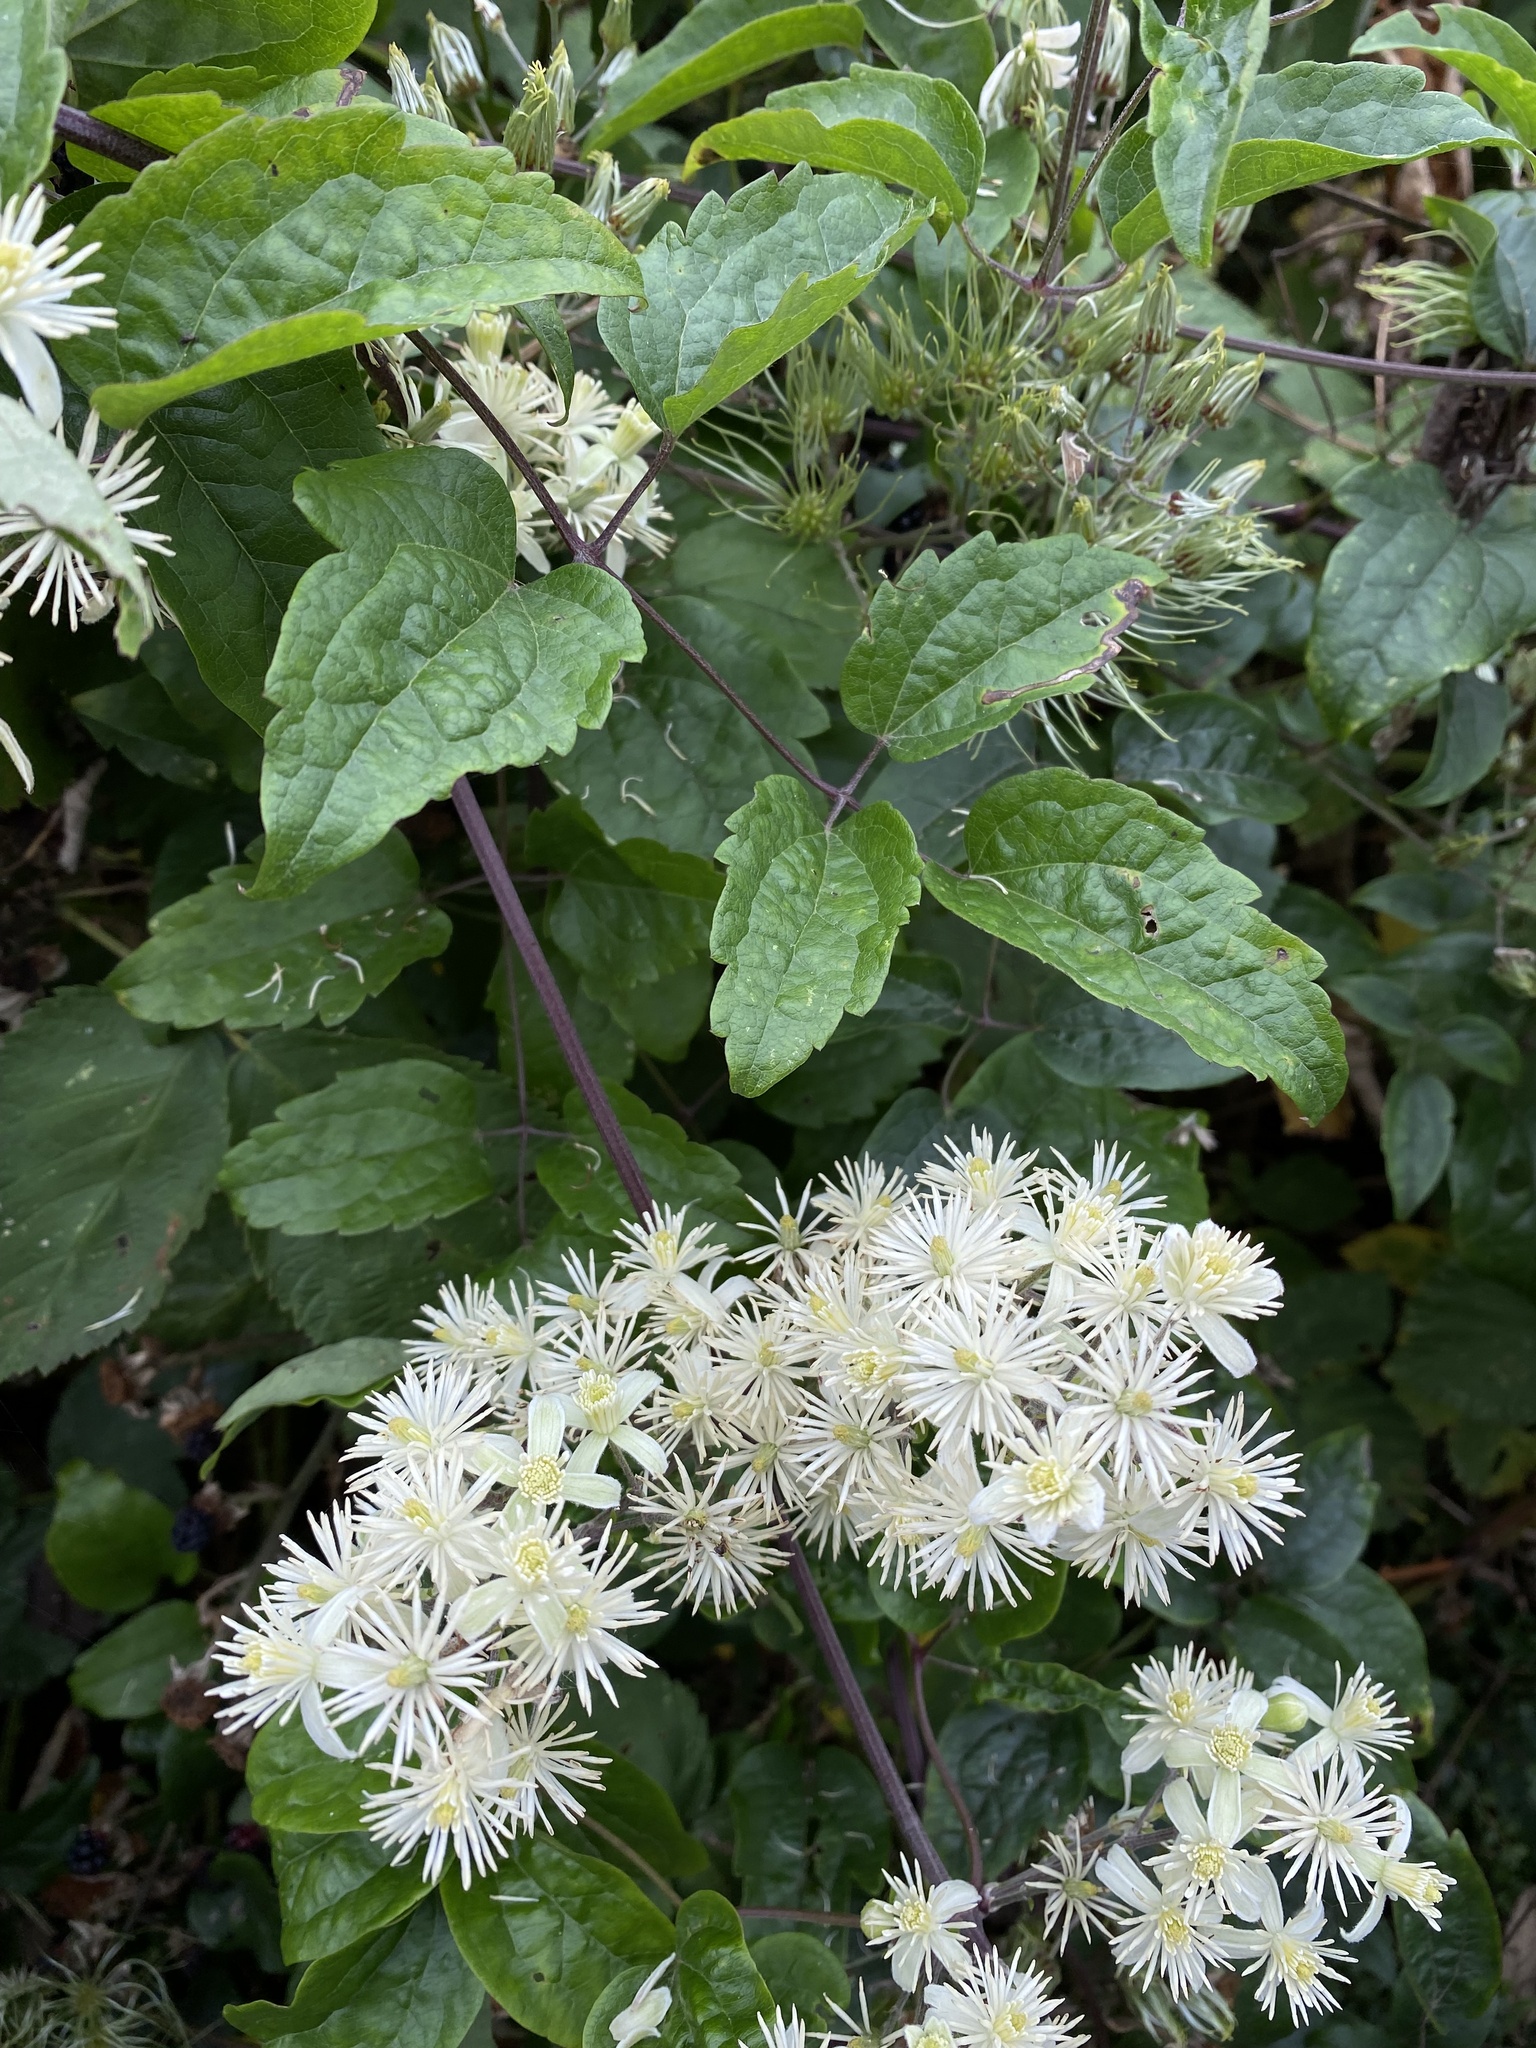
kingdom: Plantae
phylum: Tracheophyta
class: Magnoliopsida
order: Ranunculales
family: Ranunculaceae
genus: Clematis
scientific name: Clematis vitalba
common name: Evergreen clematis
